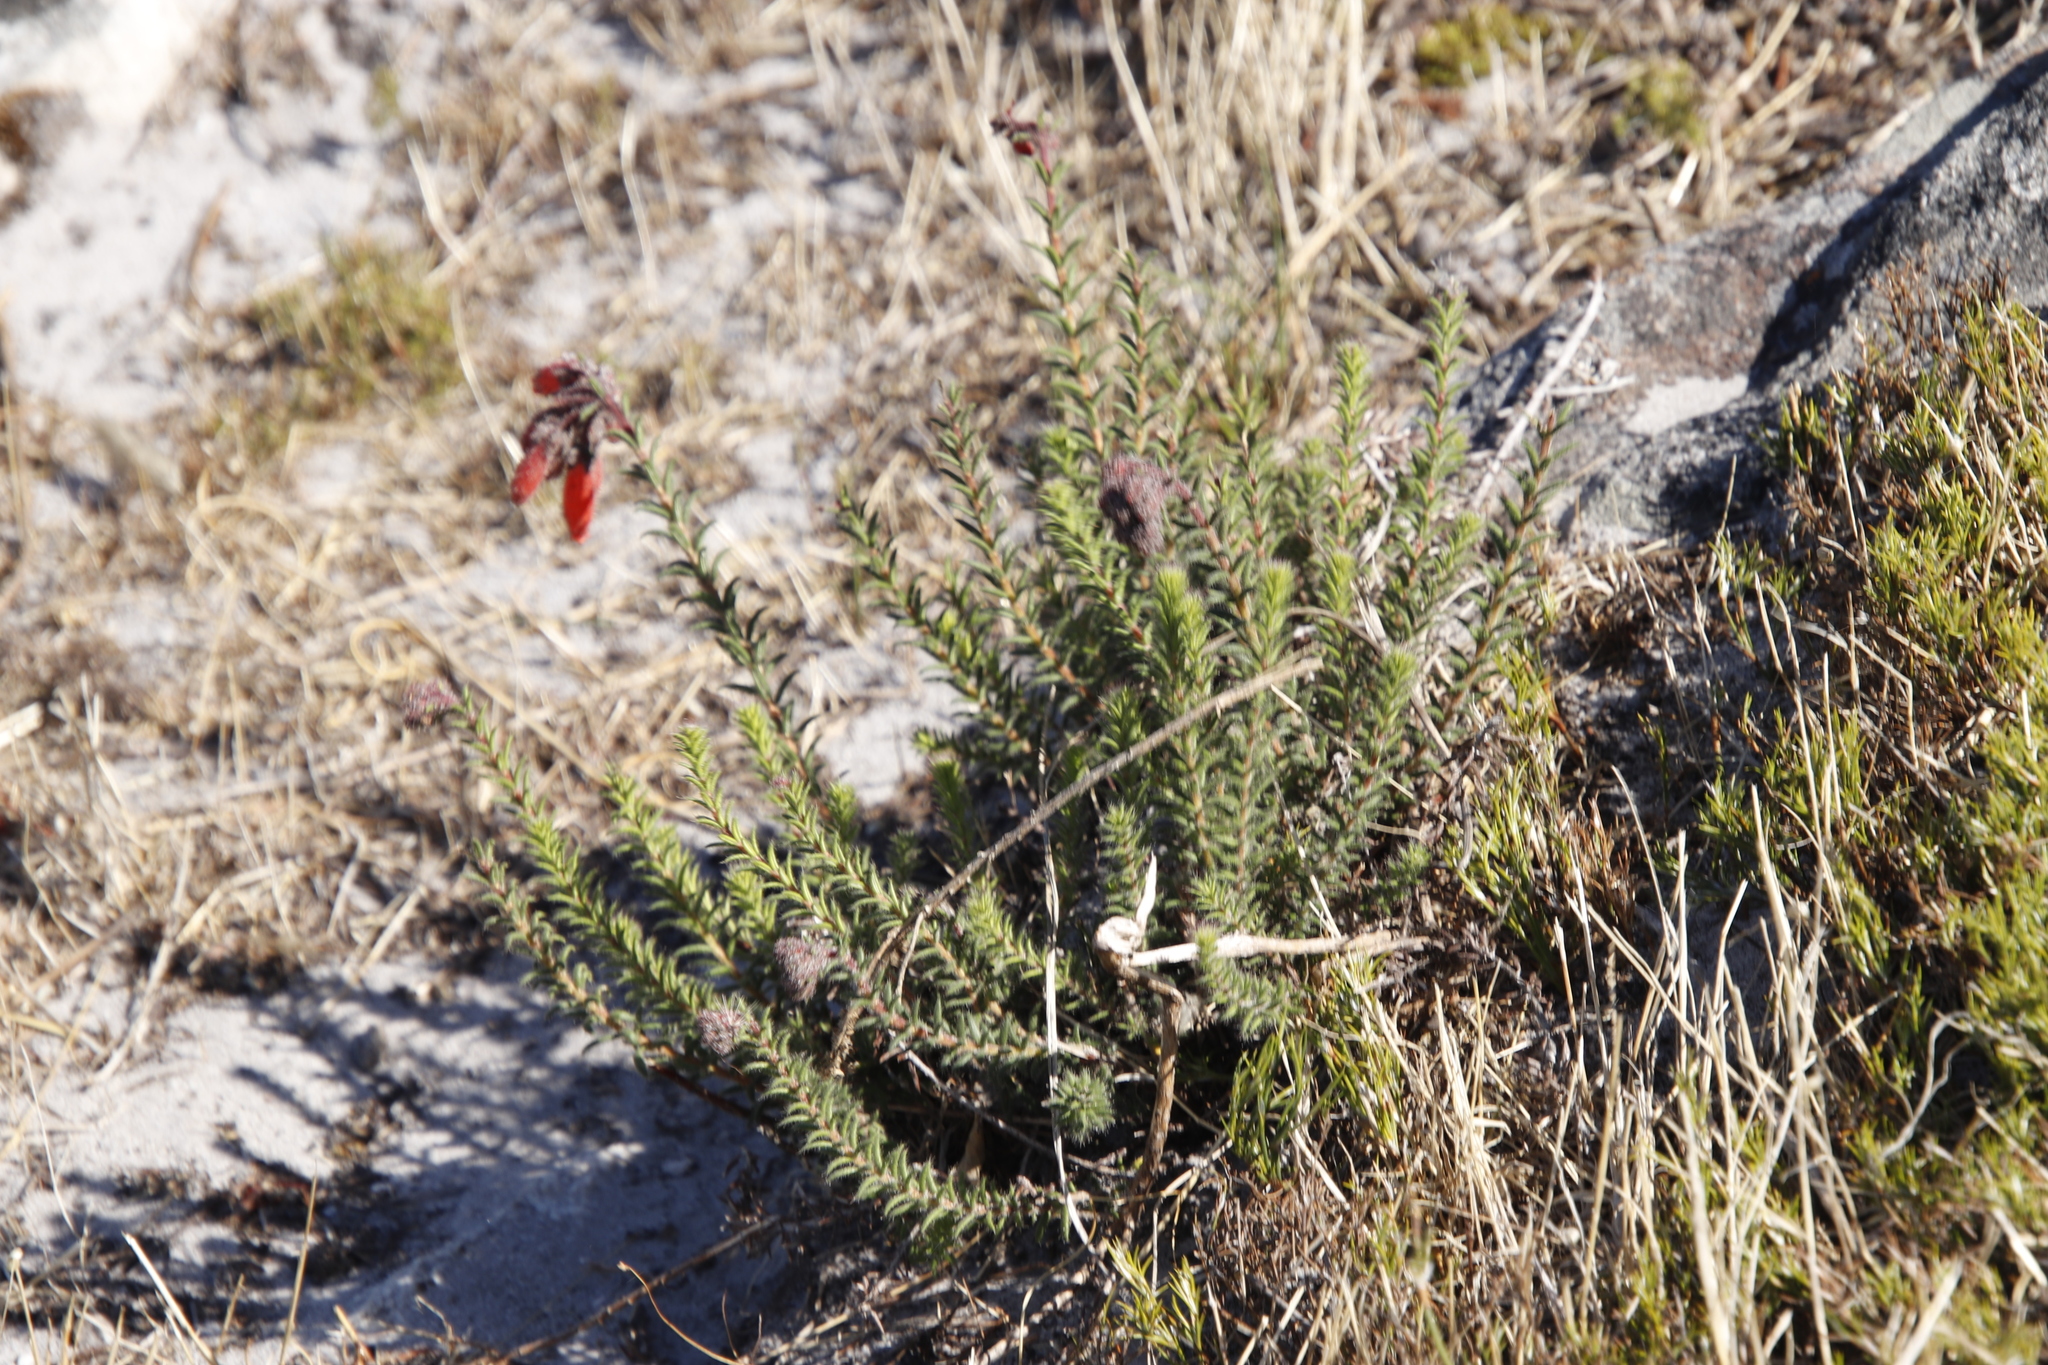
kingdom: Plantae
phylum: Tracheophyta
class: Magnoliopsida
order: Ericales
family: Ericaceae
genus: Erica
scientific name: Erica cerinthoides
